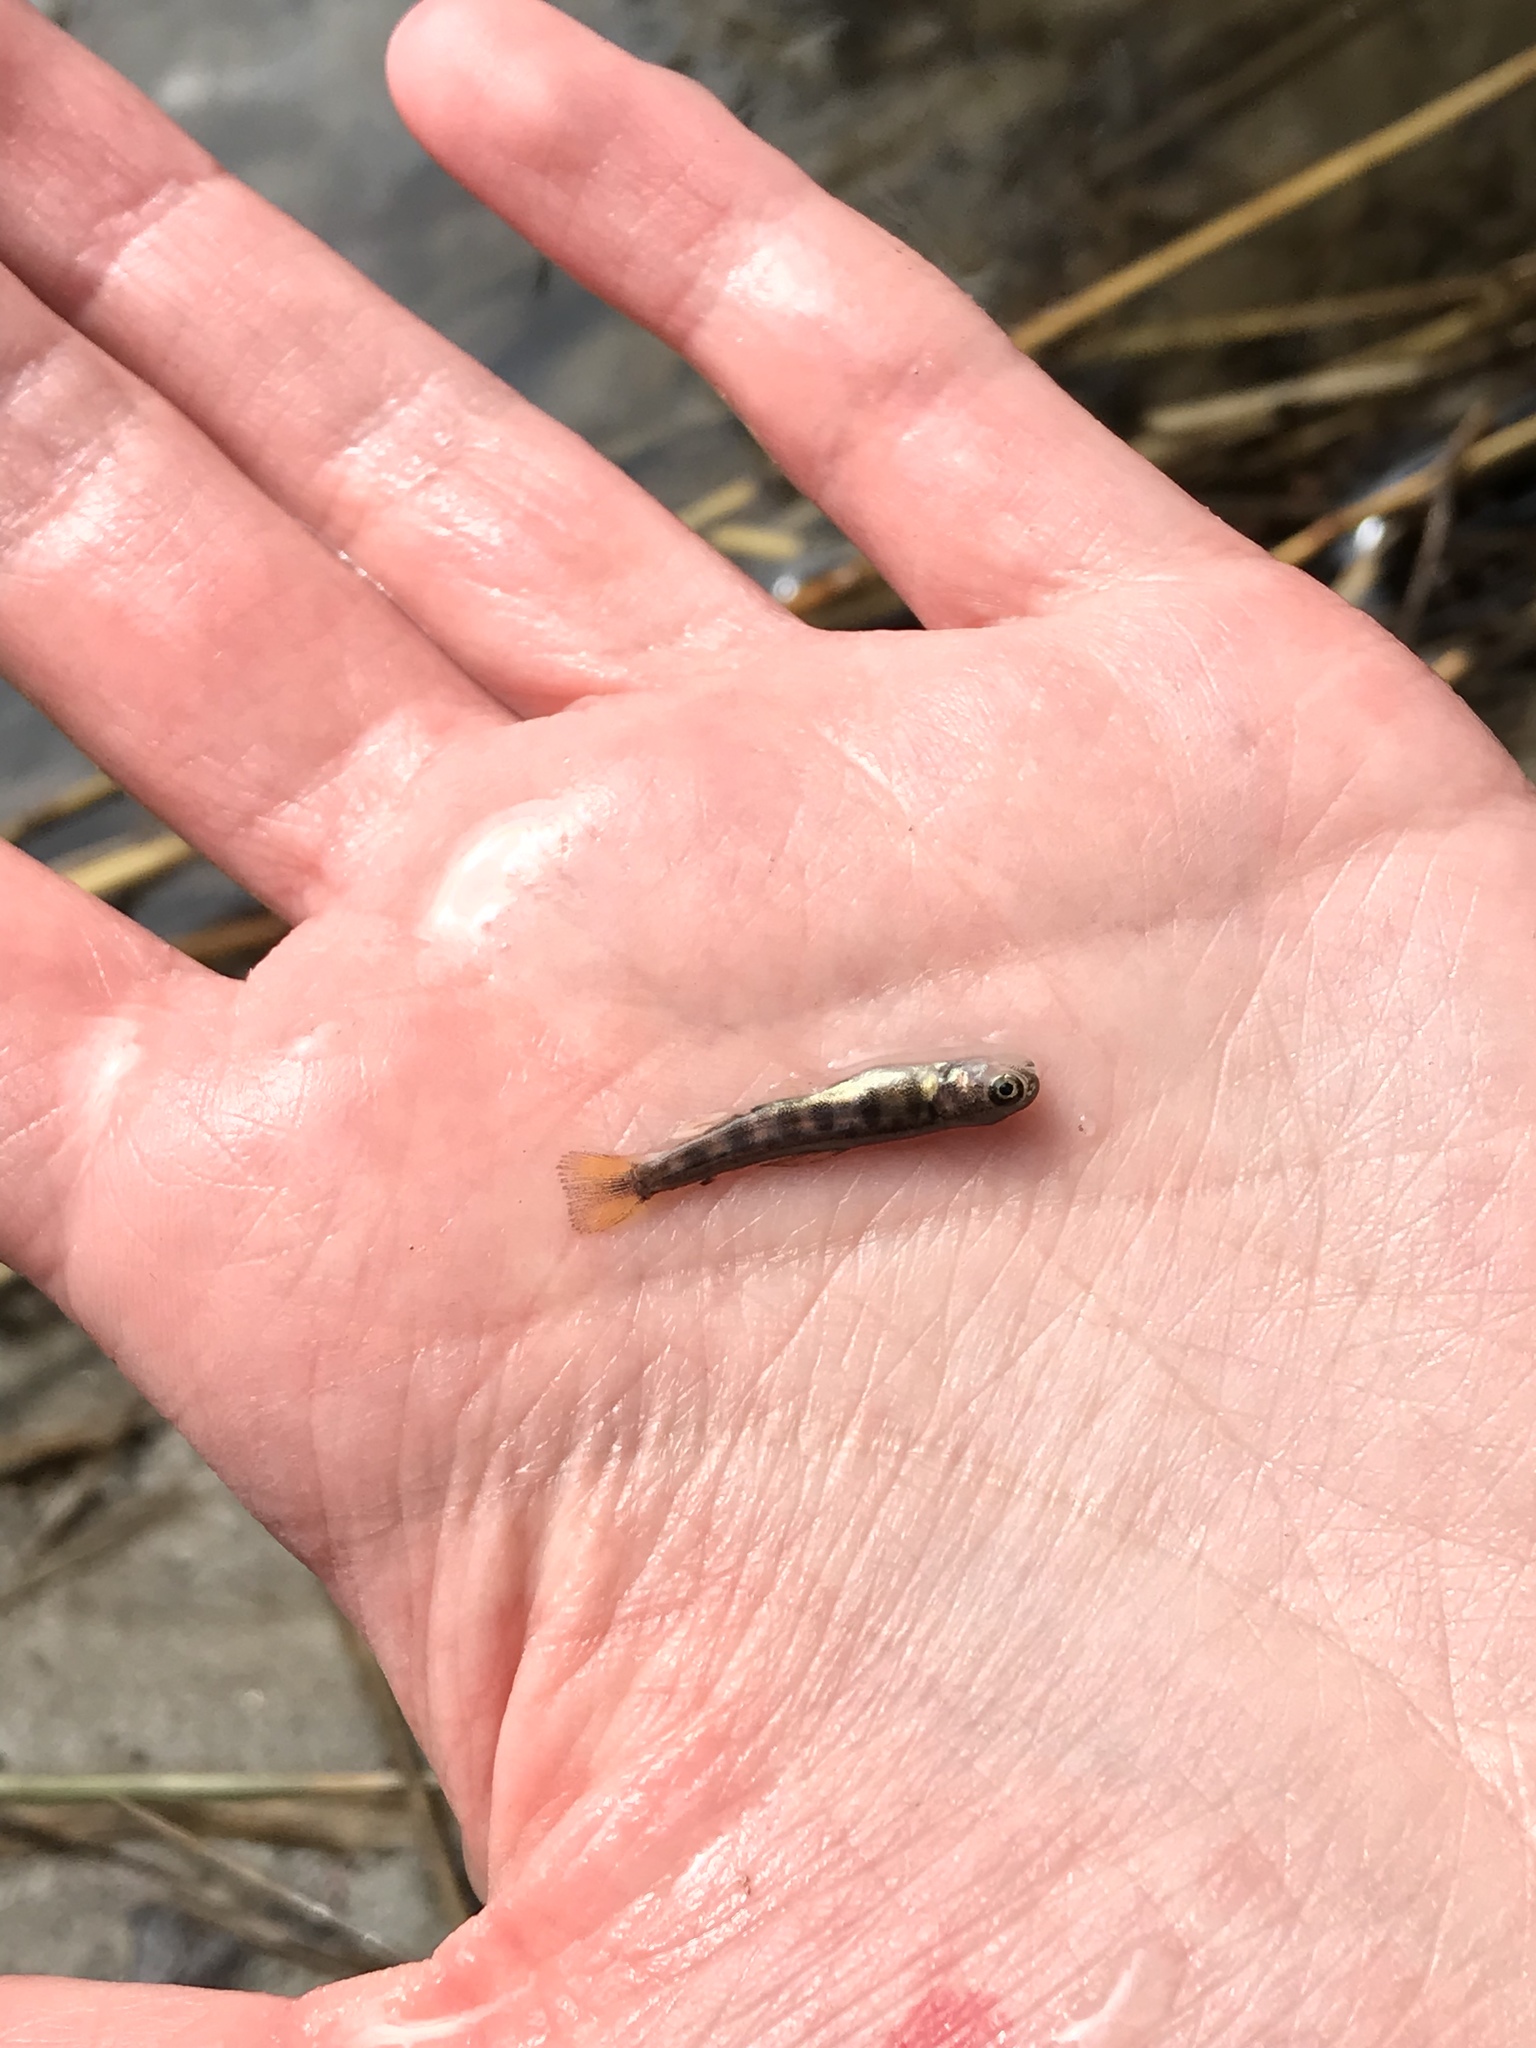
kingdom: Animalia
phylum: Chordata
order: Salmoniformes
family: Salmonidae
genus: Salvelinus
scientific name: Salvelinus fontinalis
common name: Brook trout
